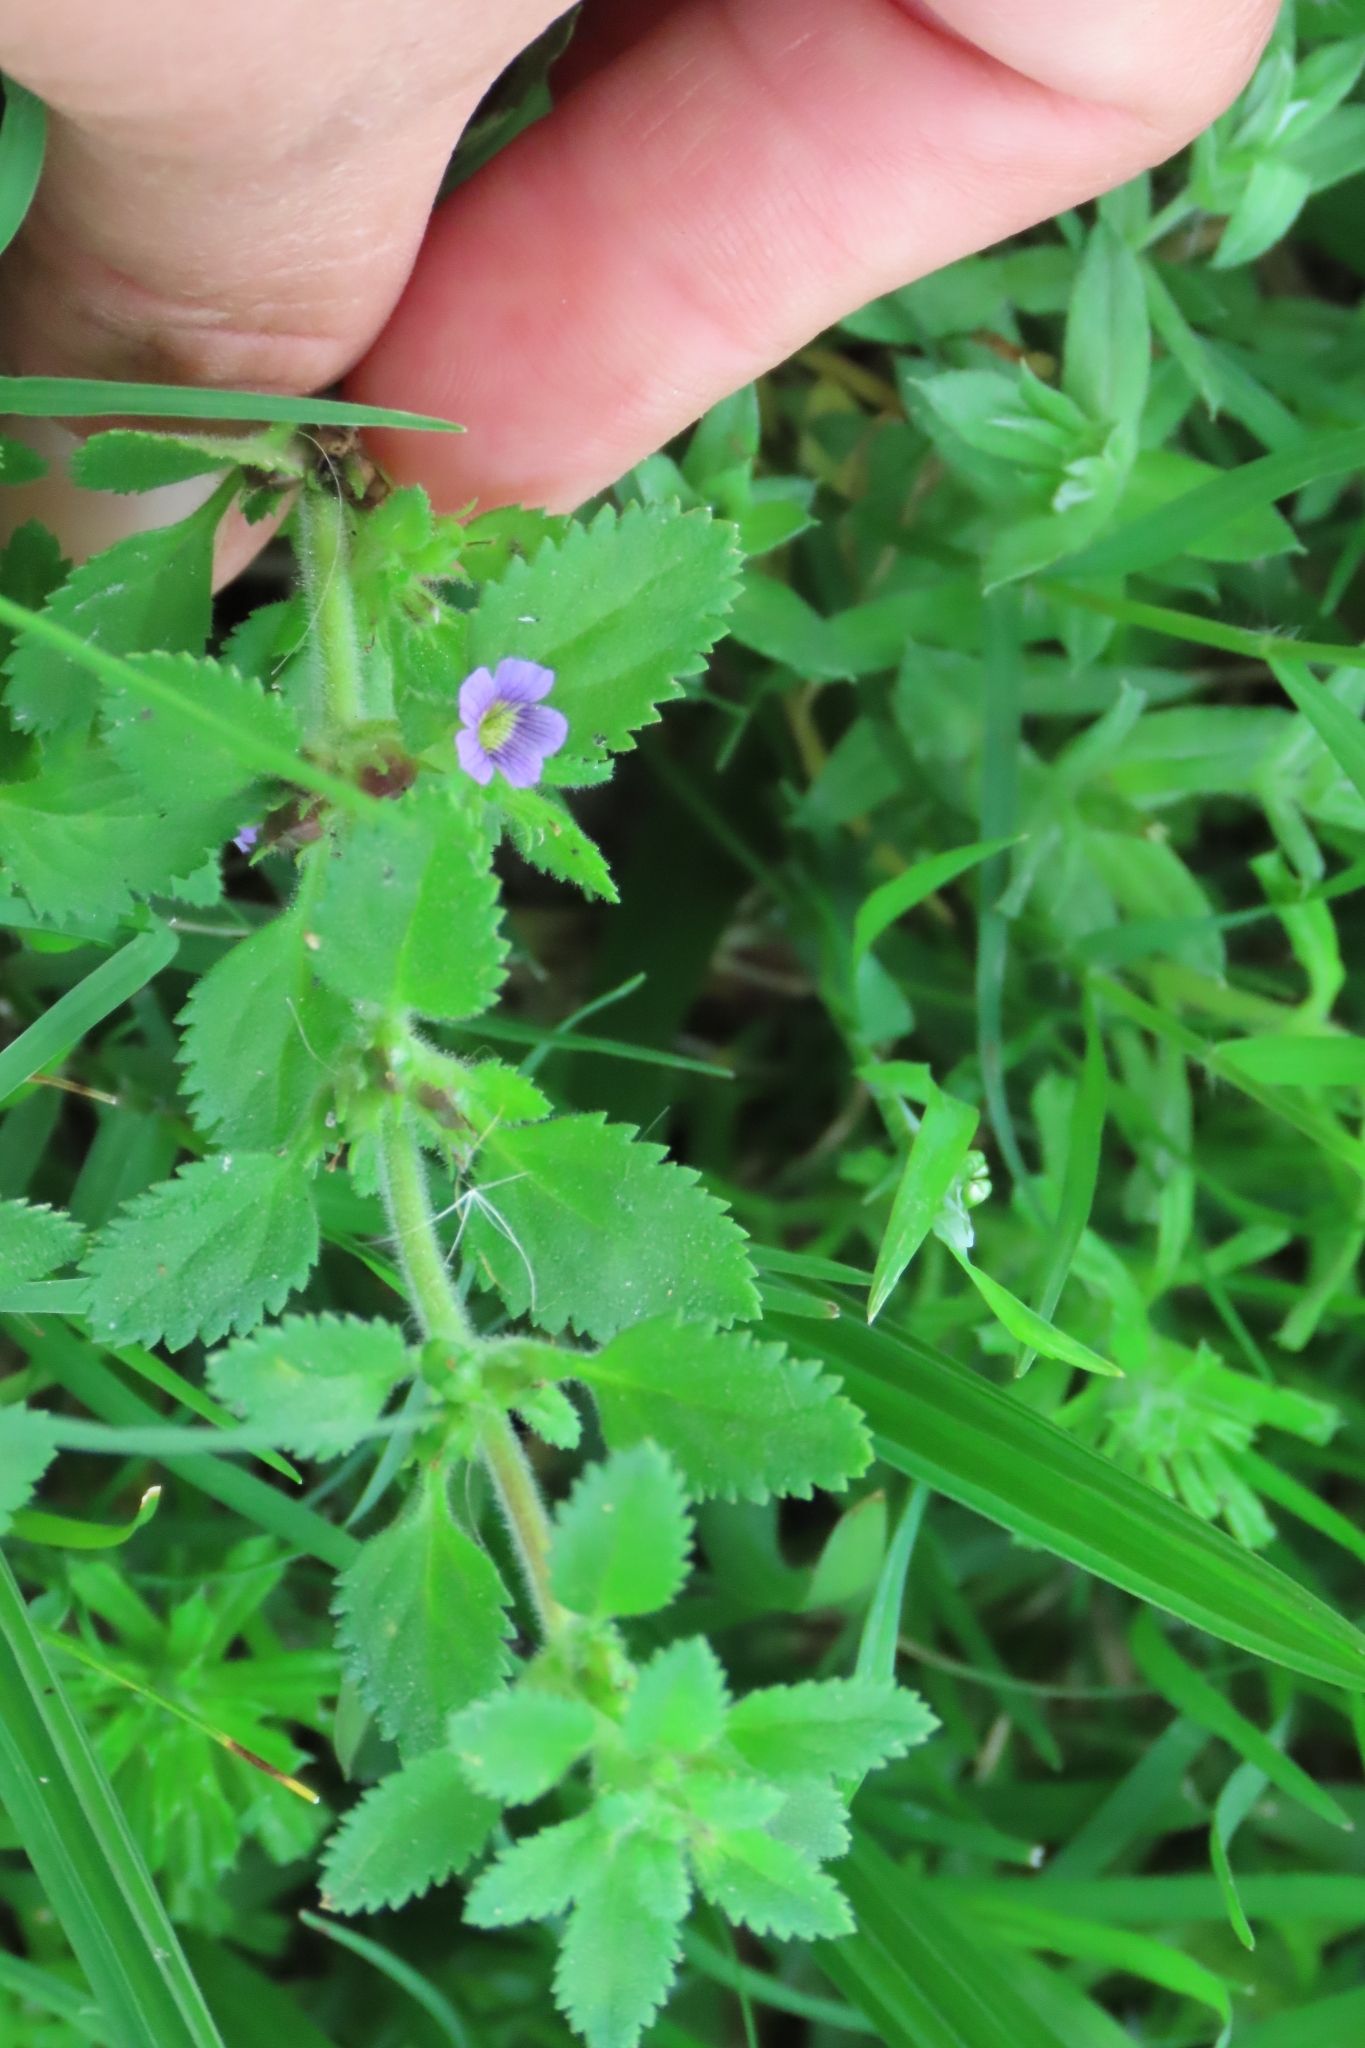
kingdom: Plantae
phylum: Tracheophyta
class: Magnoliopsida
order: Lamiales
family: Plantaginaceae
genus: Stemodia
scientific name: Stemodia verticillata
